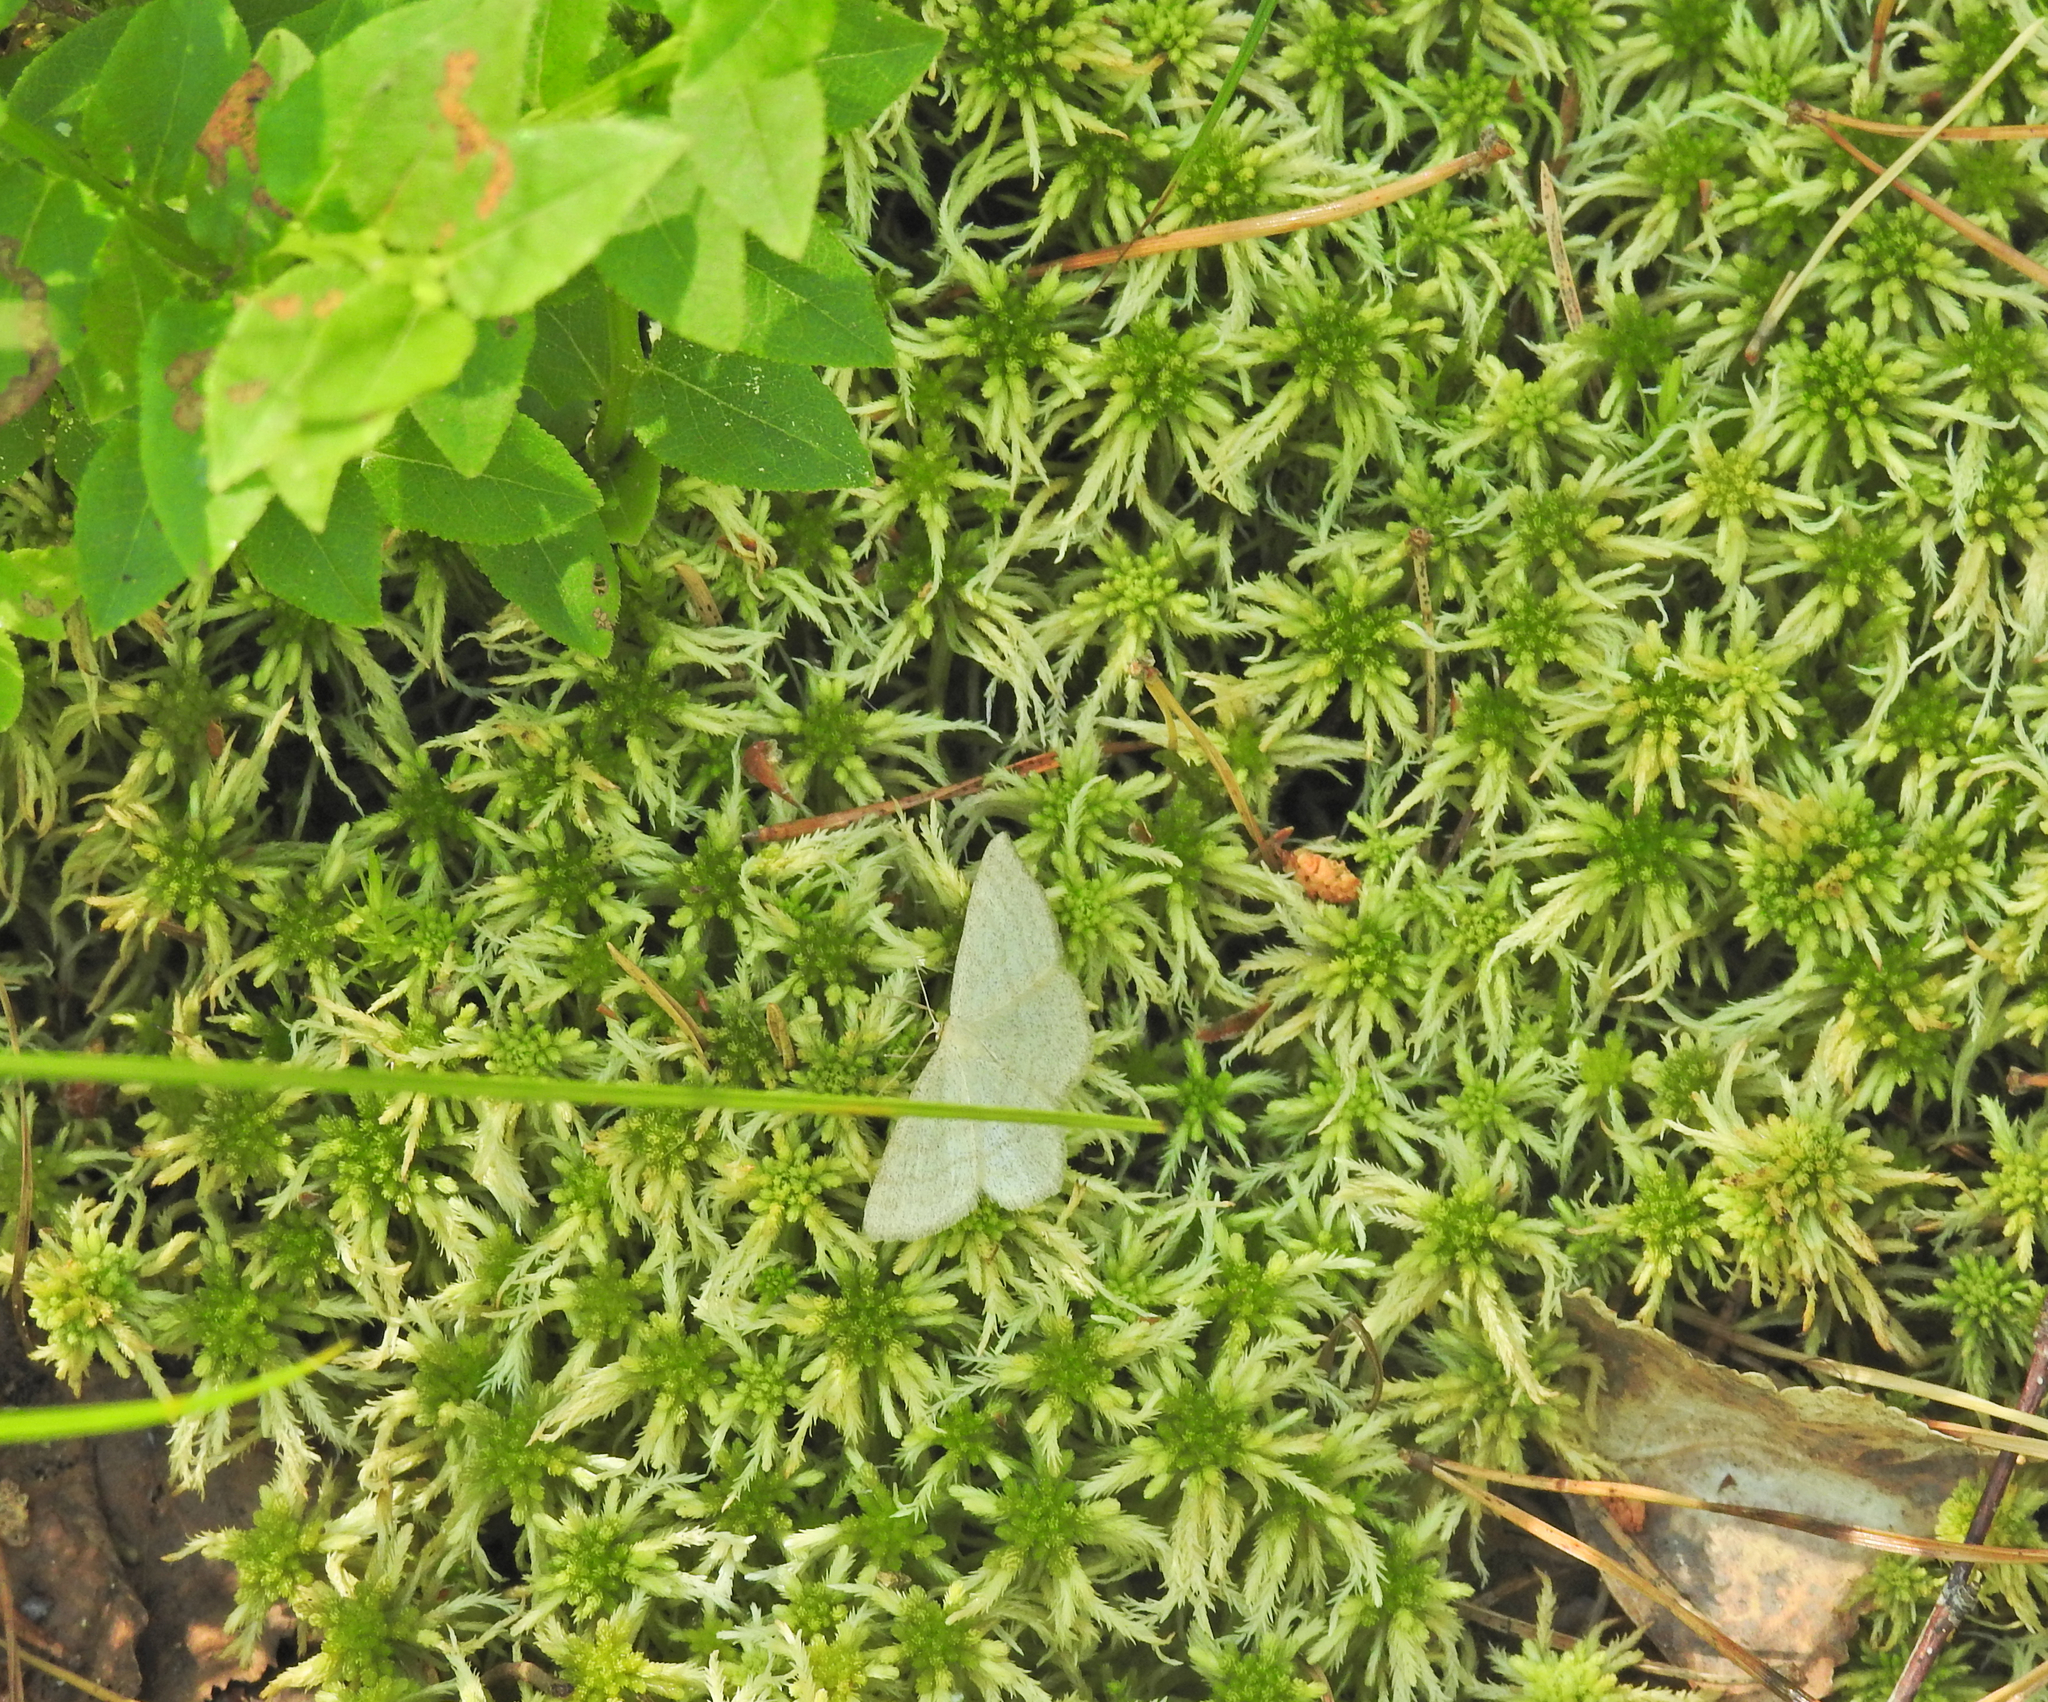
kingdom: Animalia
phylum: Arthropoda
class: Insecta
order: Lepidoptera
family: Geometridae
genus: Scopula
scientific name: Scopula ternata
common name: Smoky wave
